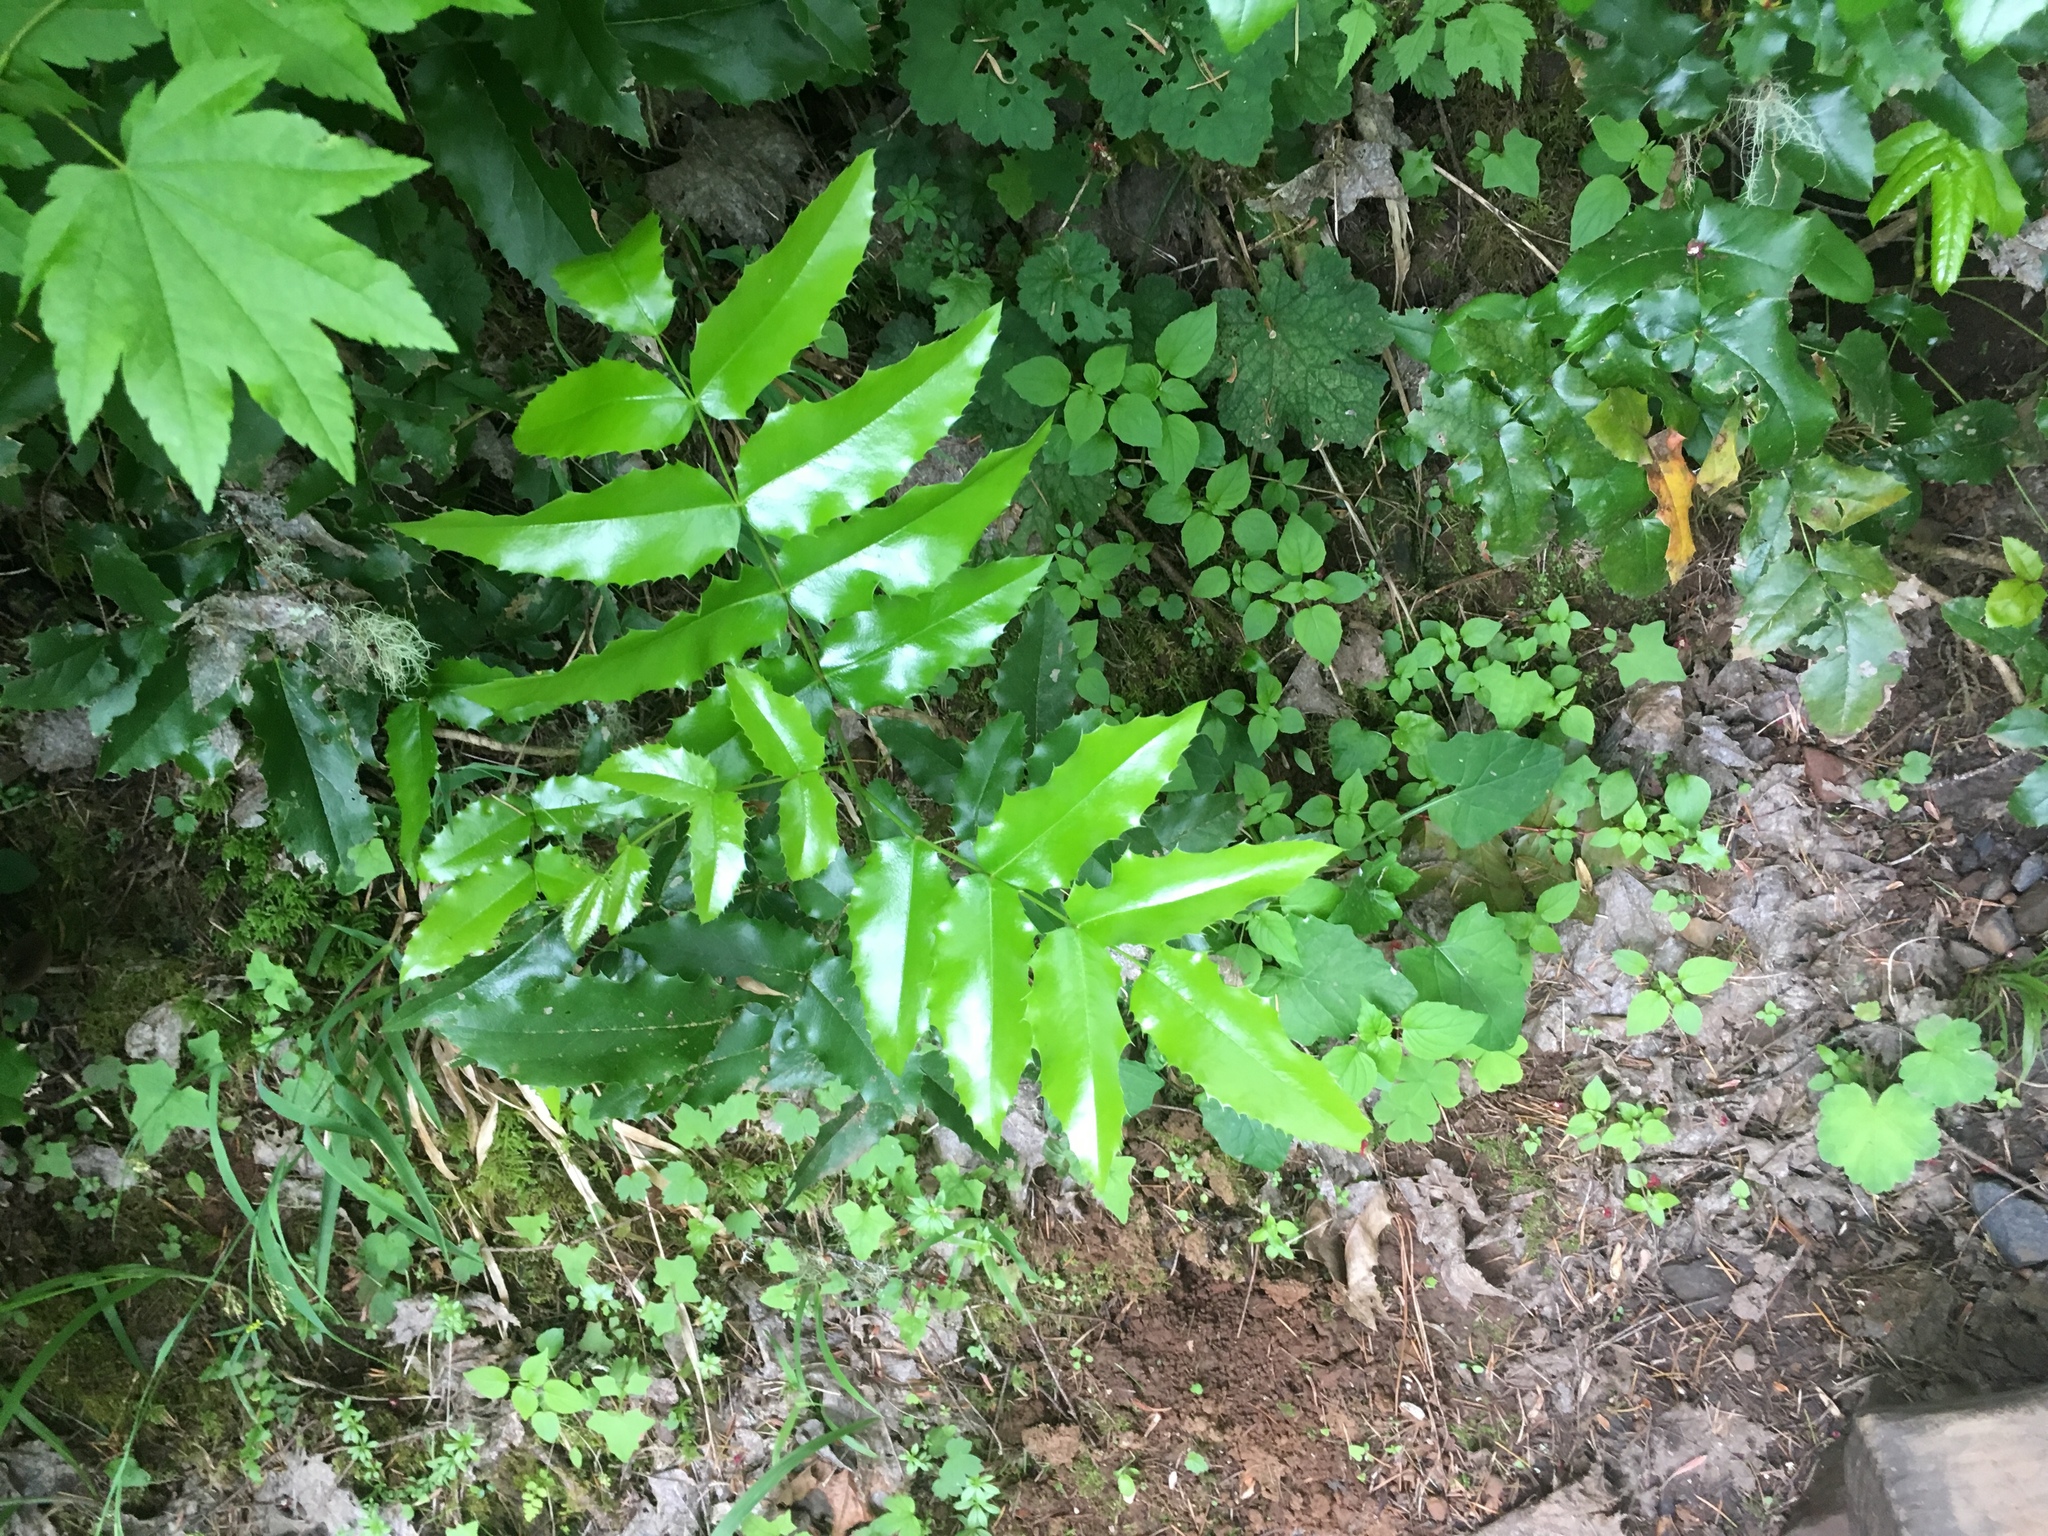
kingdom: Plantae
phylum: Tracheophyta
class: Magnoliopsida
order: Ranunculales
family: Berberidaceae
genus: Mahonia
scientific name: Mahonia aquifolium
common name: Oregon-grape
